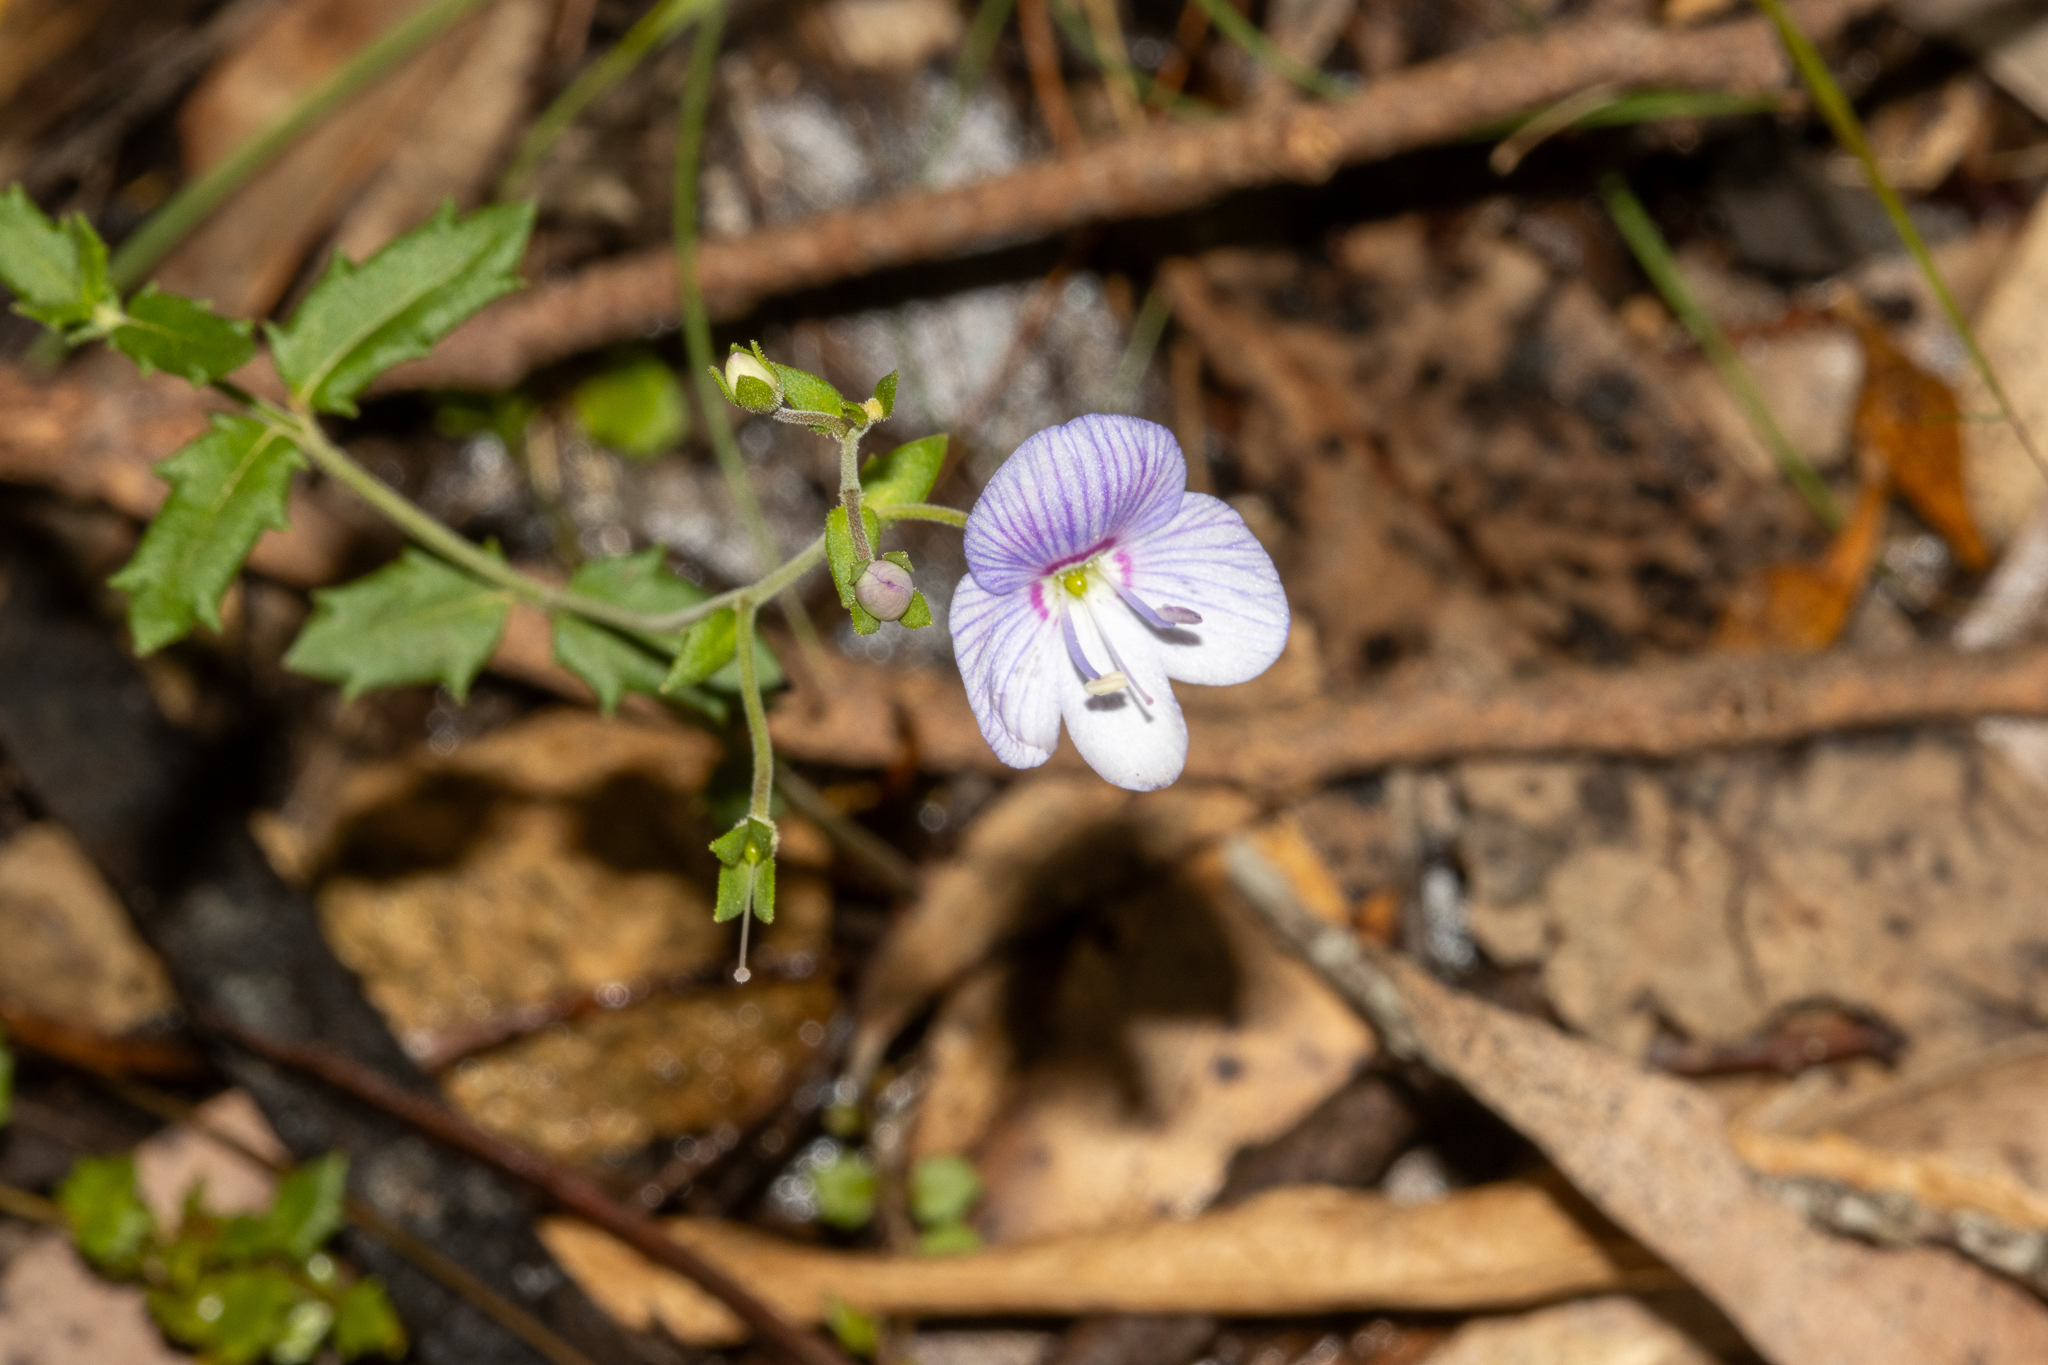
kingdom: Plantae
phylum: Tracheophyta
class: Magnoliopsida
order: Lamiales
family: Plantaginaceae
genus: Veronica
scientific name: Veronica hillebrandii
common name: Coast speedwell
